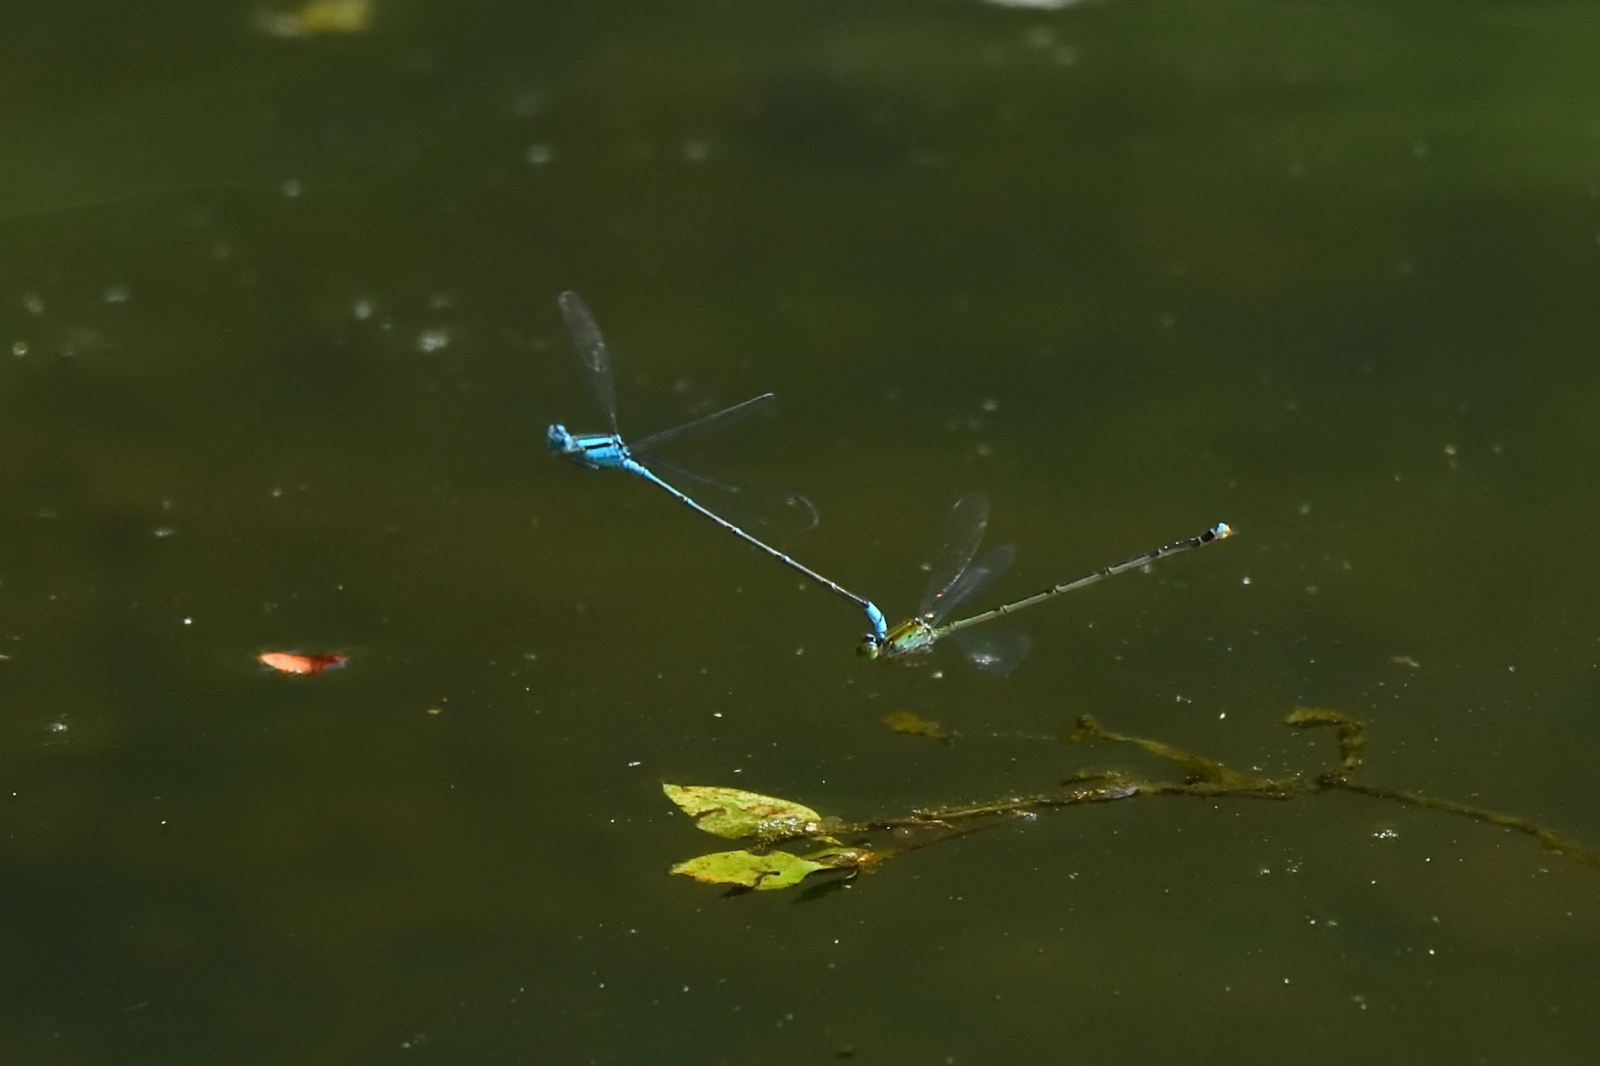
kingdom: Animalia
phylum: Arthropoda
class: Insecta
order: Odonata
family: Coenagrionidae
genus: Pseudagrion
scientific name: Pseudagrion microcephalum
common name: Blue riverdamsel
